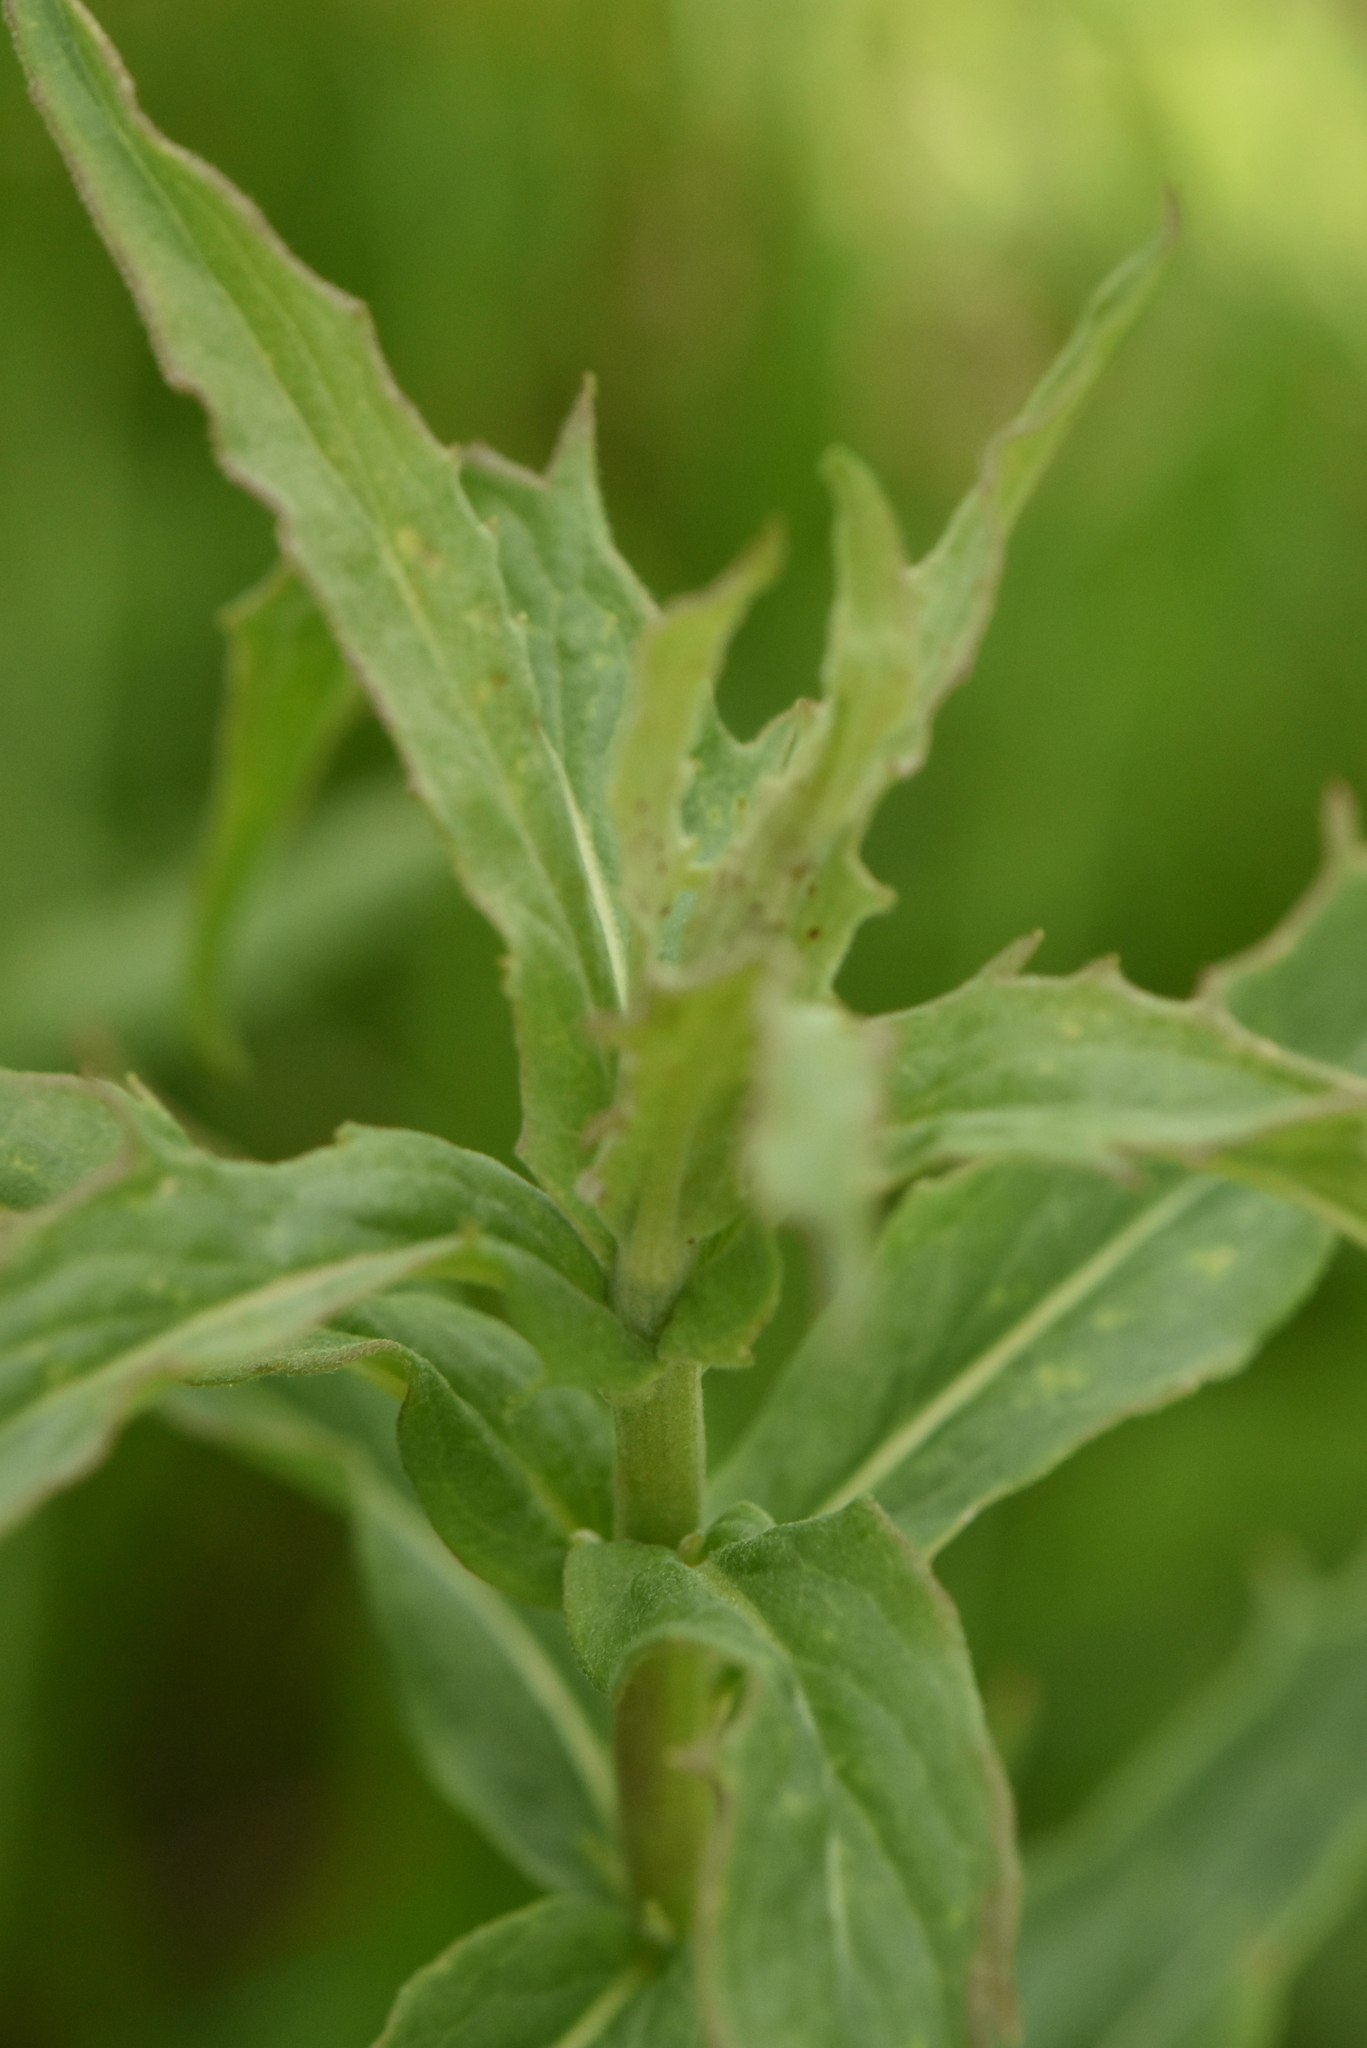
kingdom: Plantae
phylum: Tracheophyta
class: Magnoliopsida
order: Asterales
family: Asteraceae
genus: Hieracium
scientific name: Hieracium umbellatum
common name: Northern hawkweed
